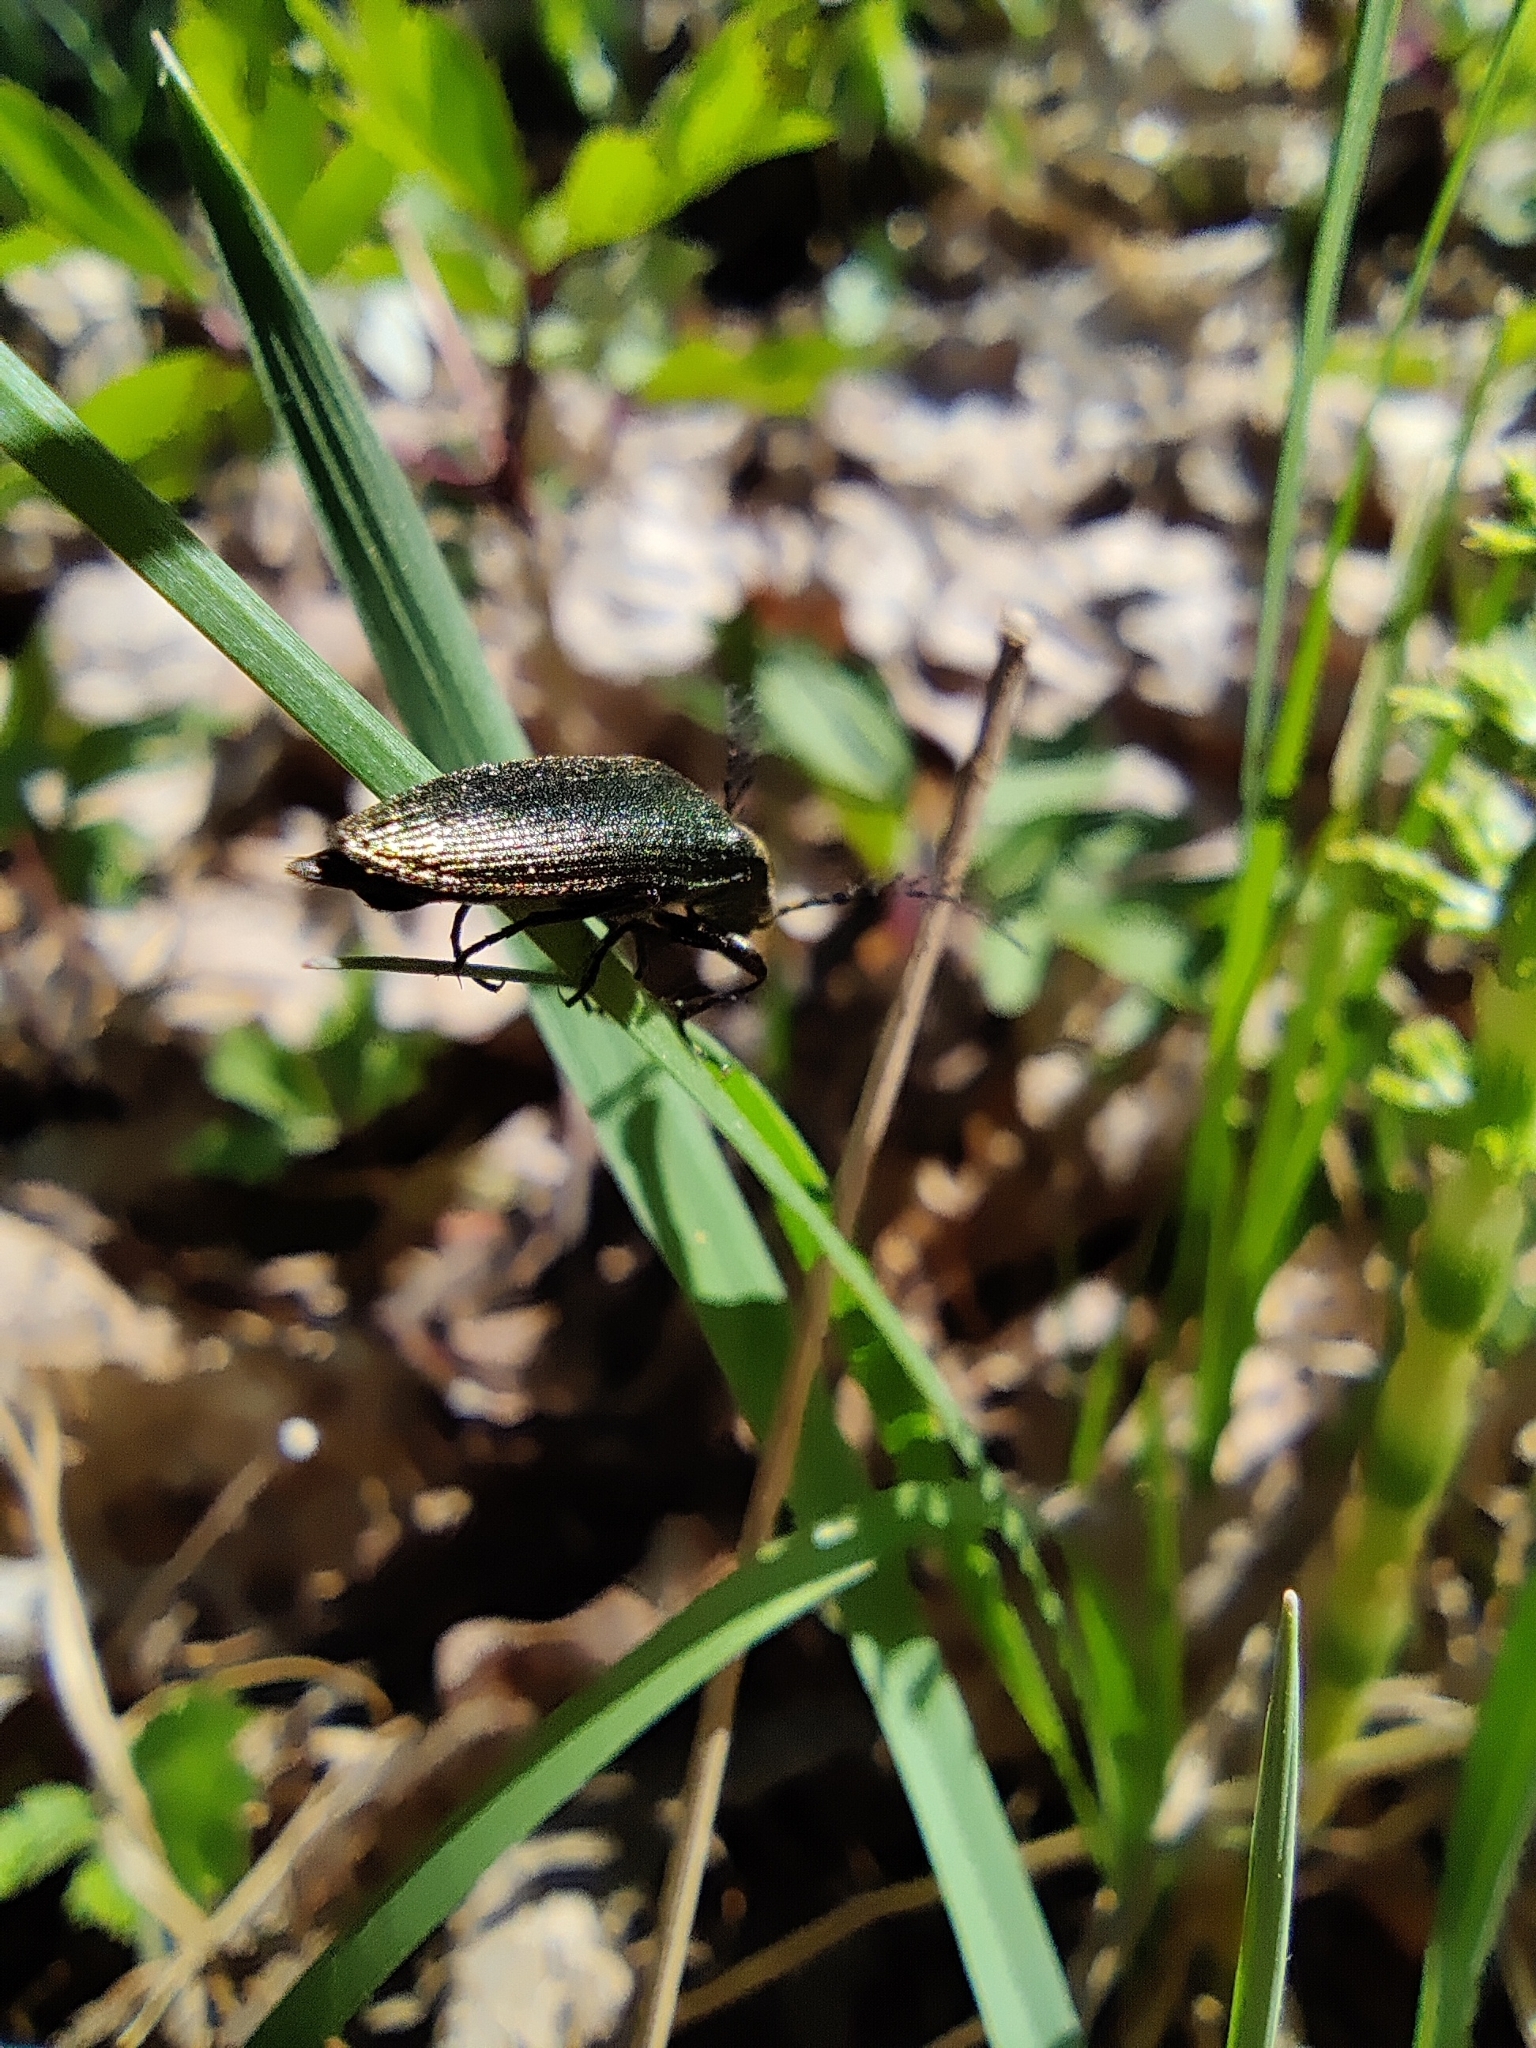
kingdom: Animalia
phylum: Arthropoda
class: Insecta
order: Coleoptera
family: Elateridae
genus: Ctenicera
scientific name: Ctenicera pectinicornis
